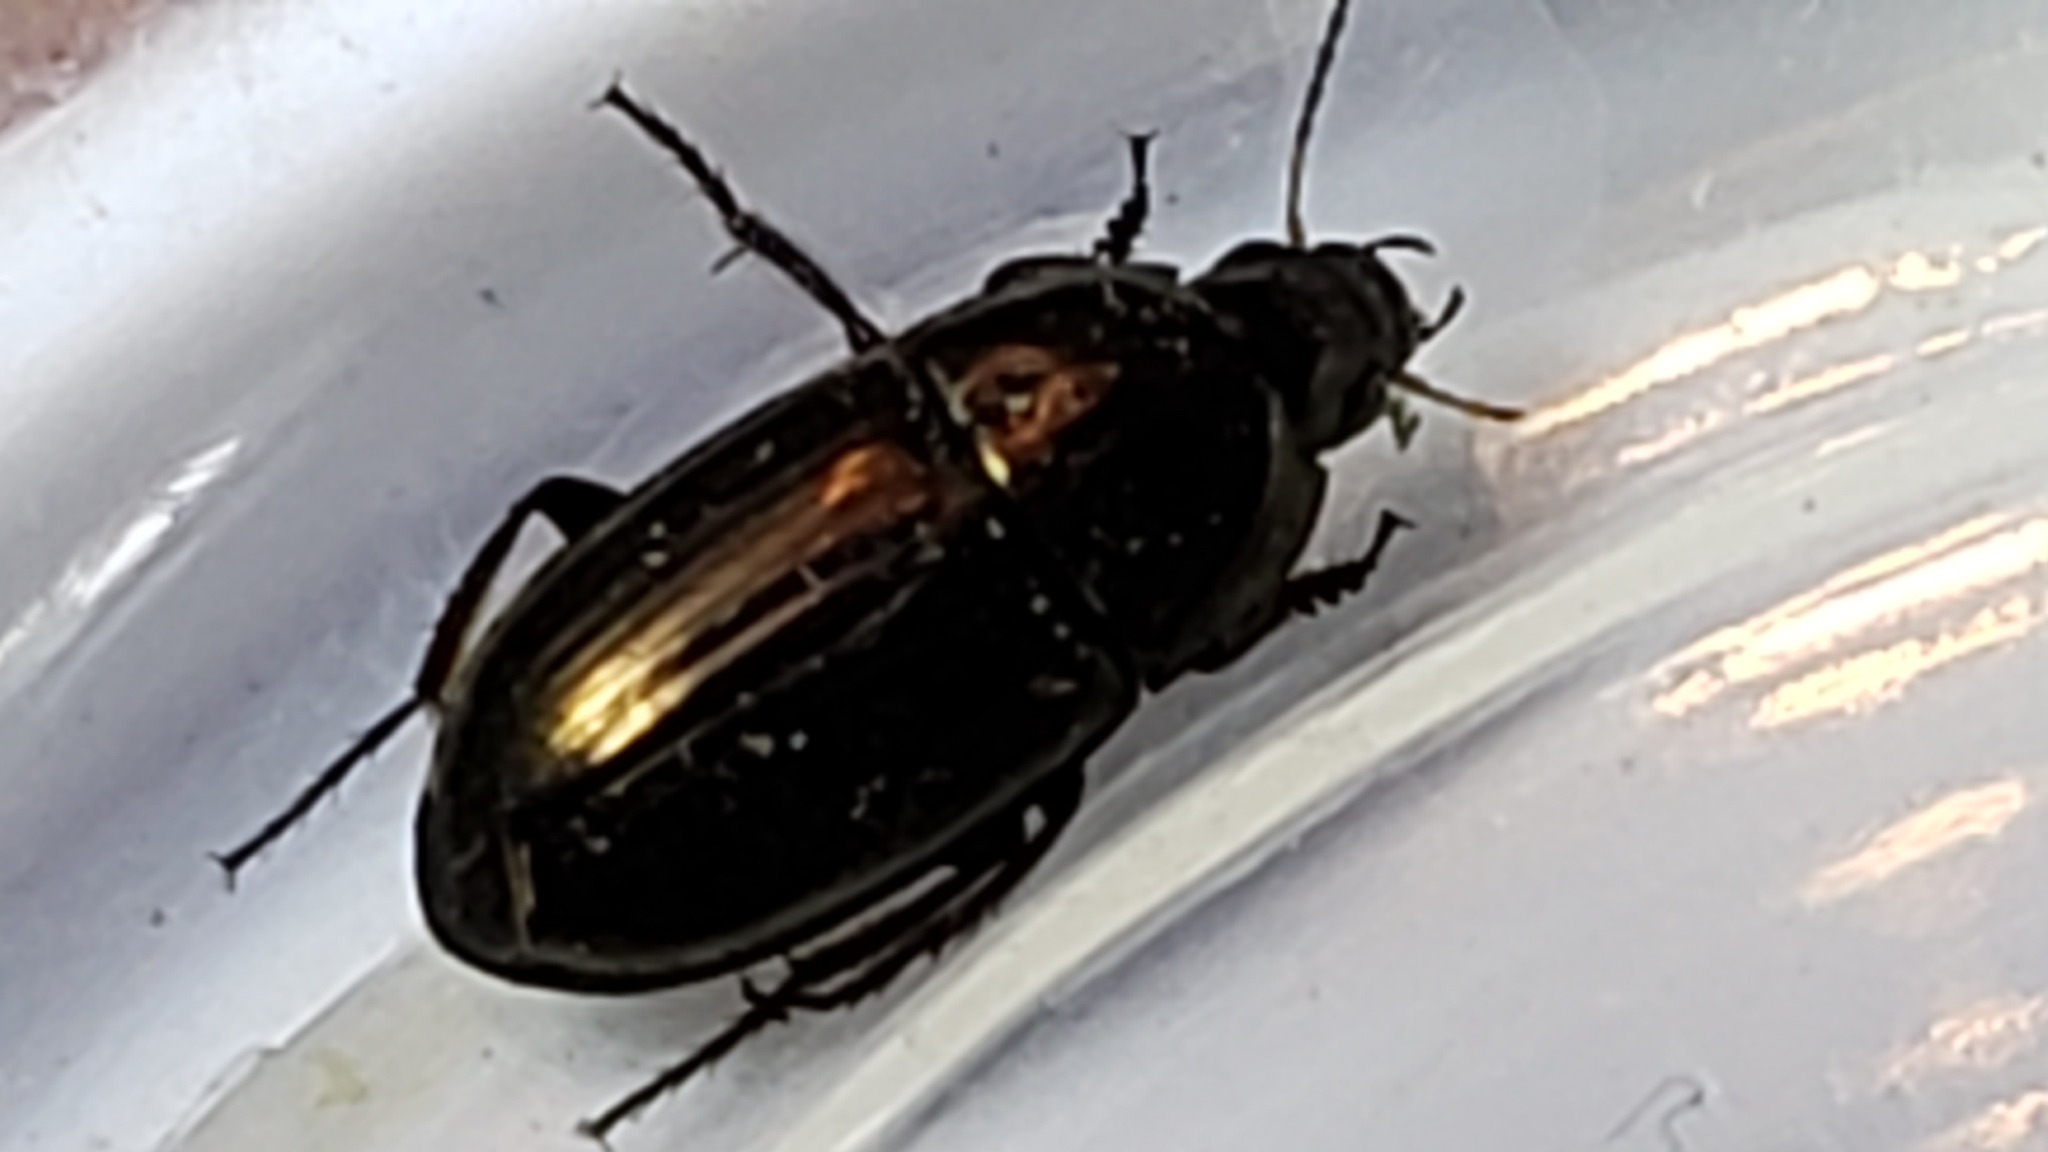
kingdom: Animalia
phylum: Arthropoda
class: Insecta
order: Coleoptera
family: Carabidae
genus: Amara
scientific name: Amara aenea
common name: Common sun beetle
